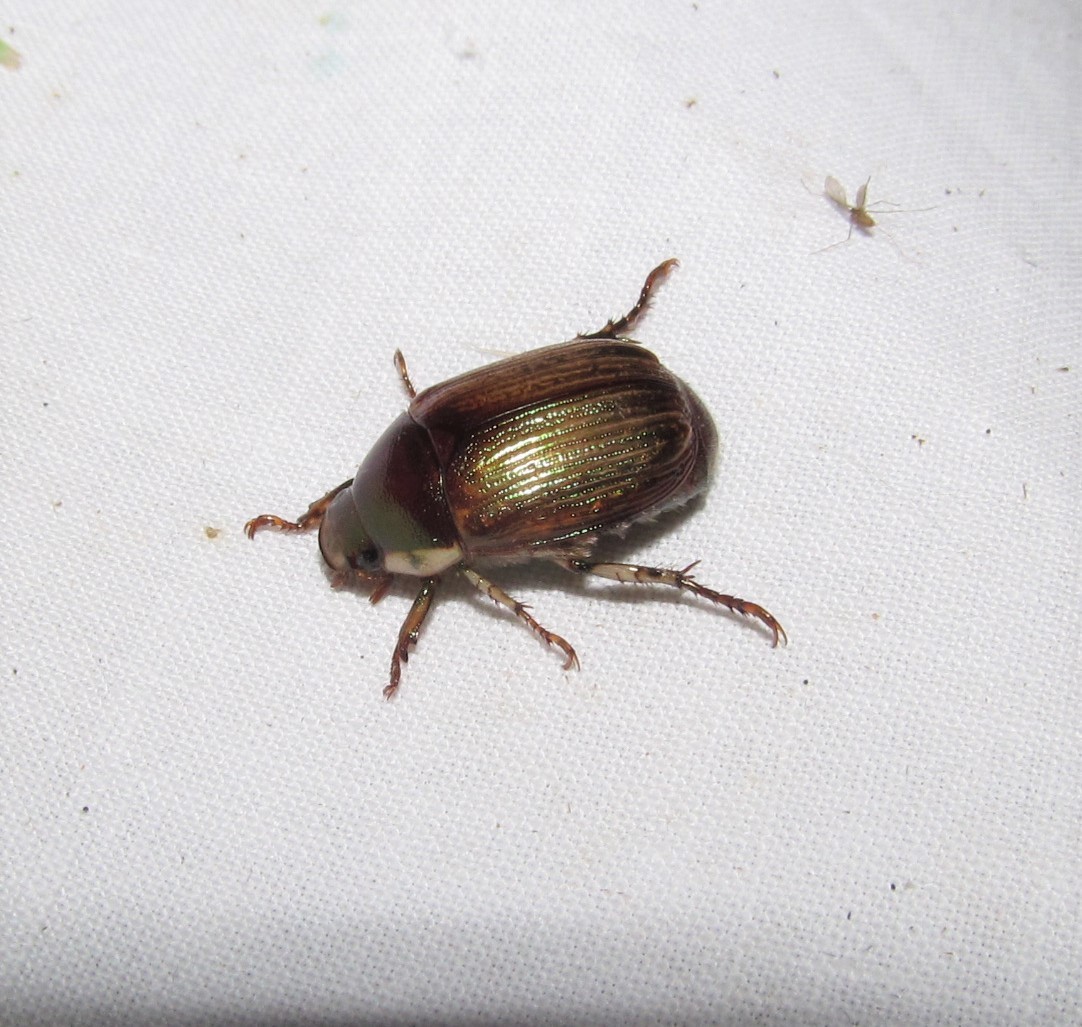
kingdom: Animalia
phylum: Arthropoda
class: Insecta
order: Coleoptera
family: Scarabaeidae
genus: Callistethus
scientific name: Callistethus marginatus
